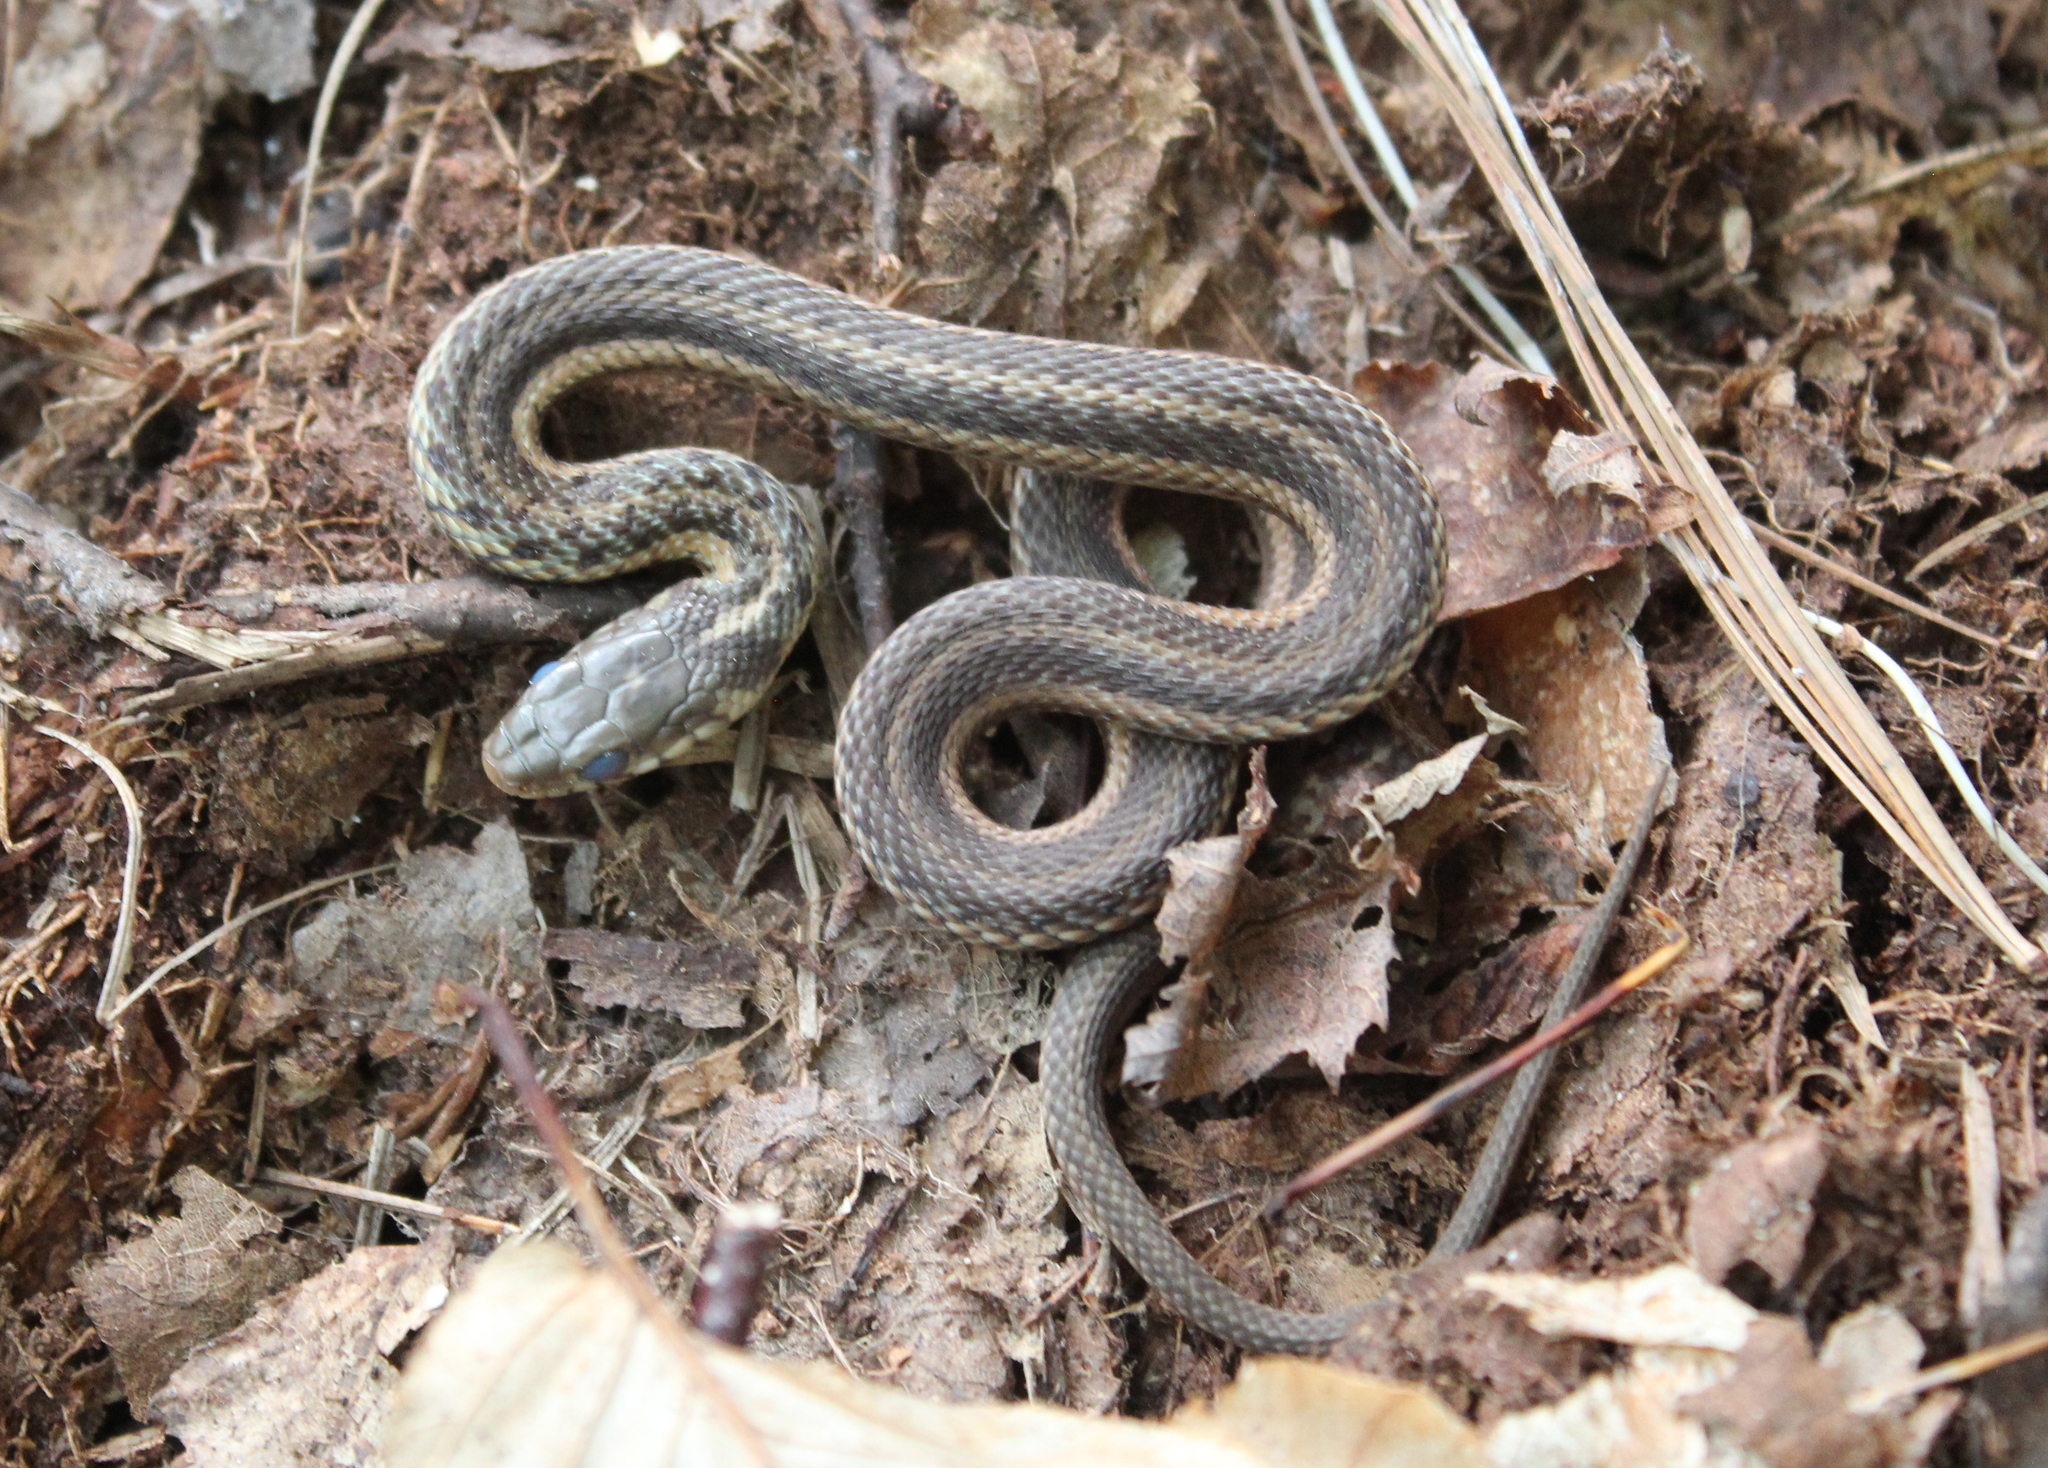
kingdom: Animalia
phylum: Chordata
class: Squamata
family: Colubridae
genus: Thamnophis
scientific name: Thamnophis sirtalis
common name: Common garter snake
